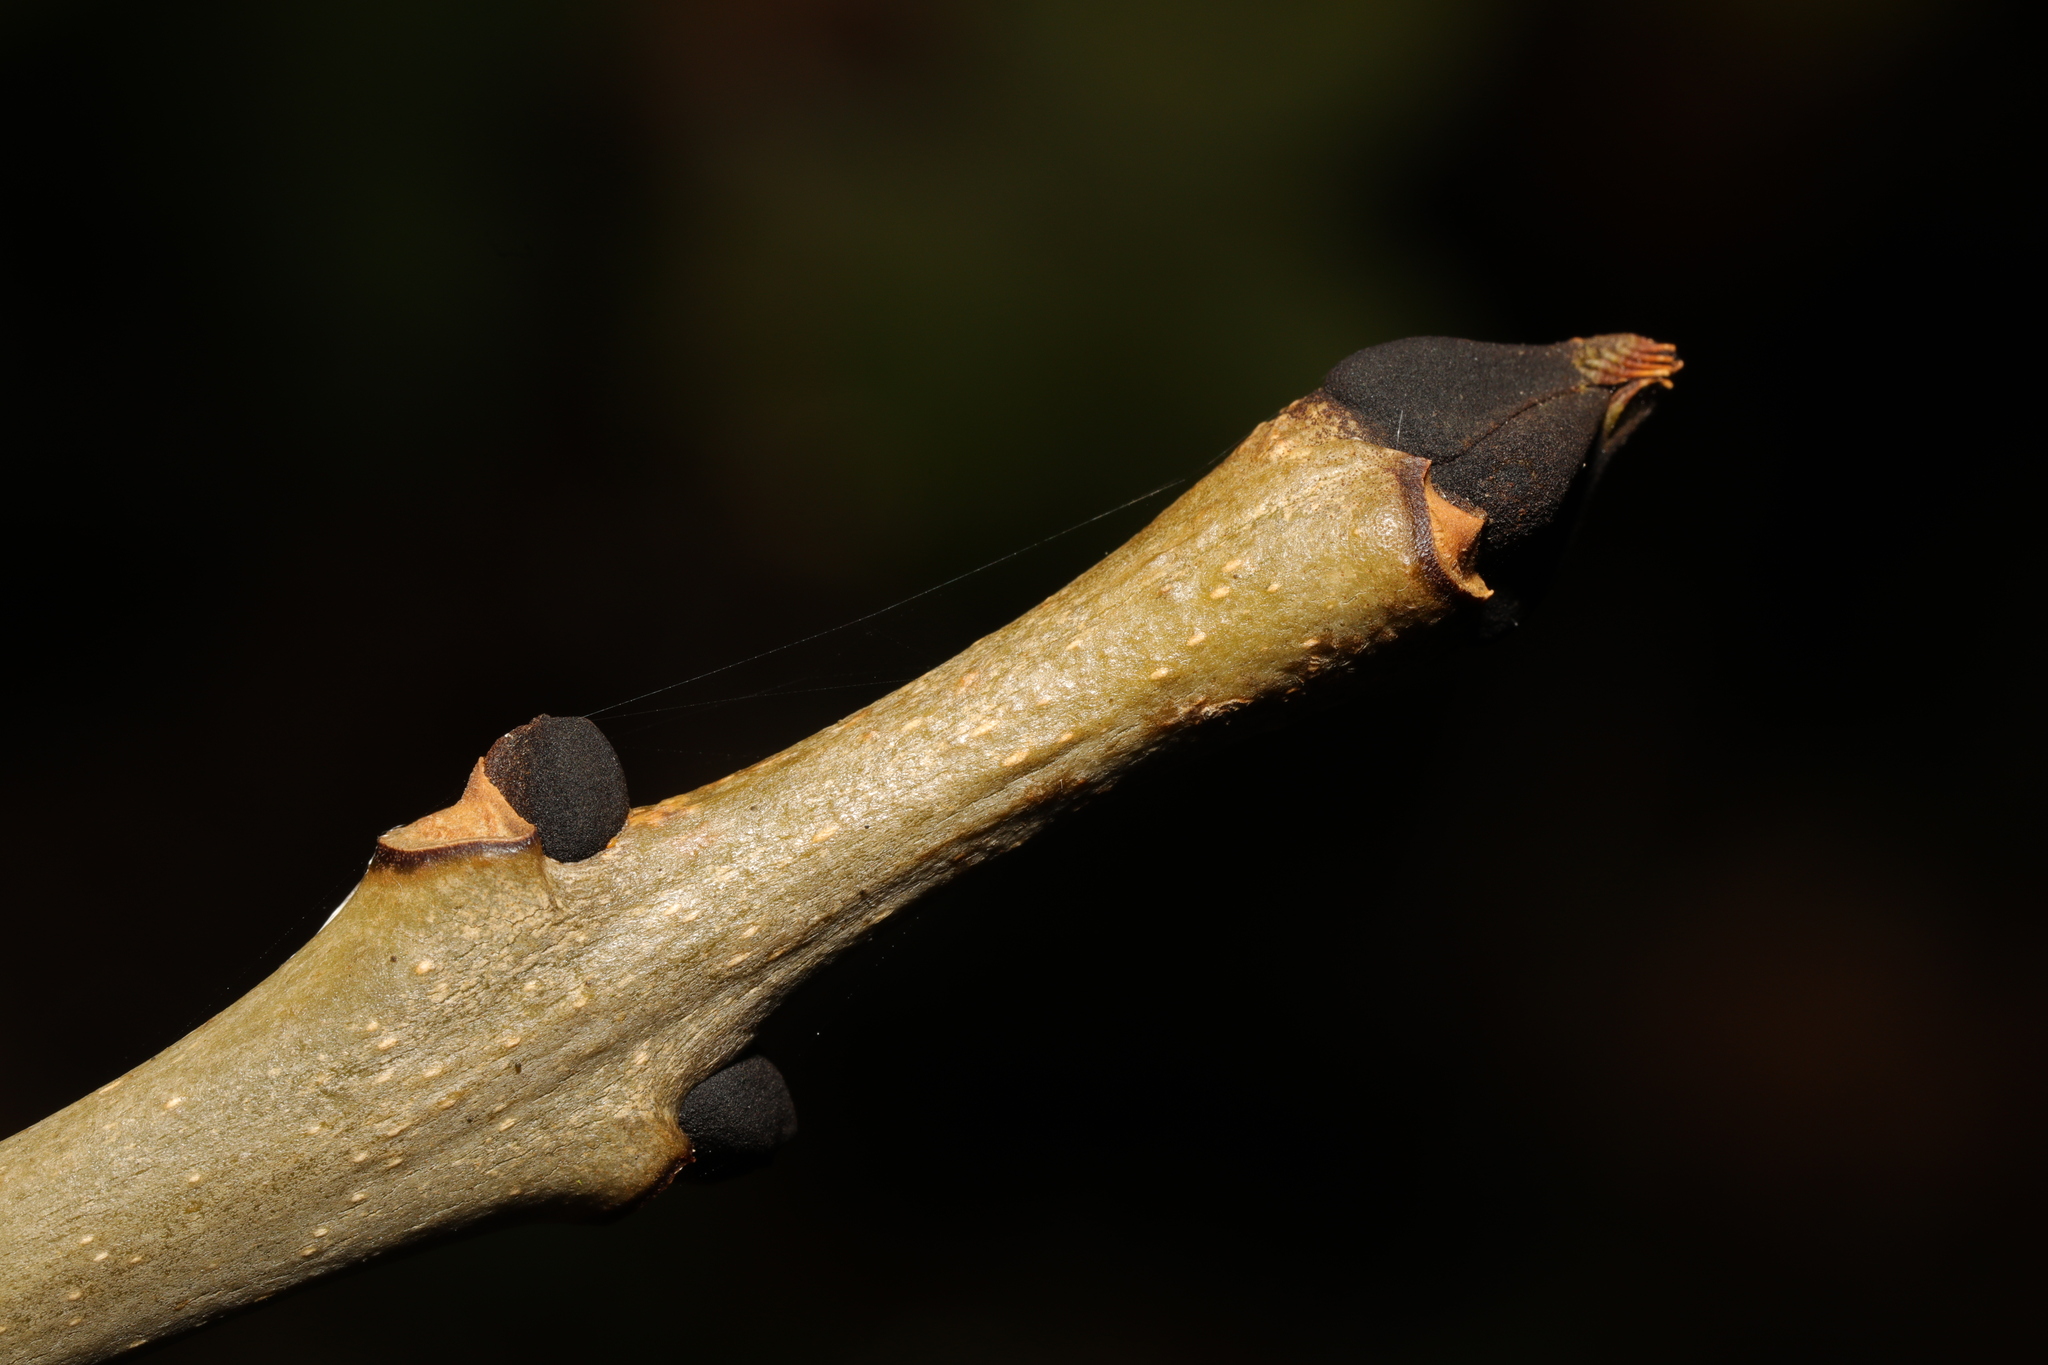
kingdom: Plantae
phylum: Tracheophyta
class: Magnoliopsida
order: Lamiales
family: Oleaceae
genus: Fraxinus
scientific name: Fraxinus excelsior
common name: European ash
